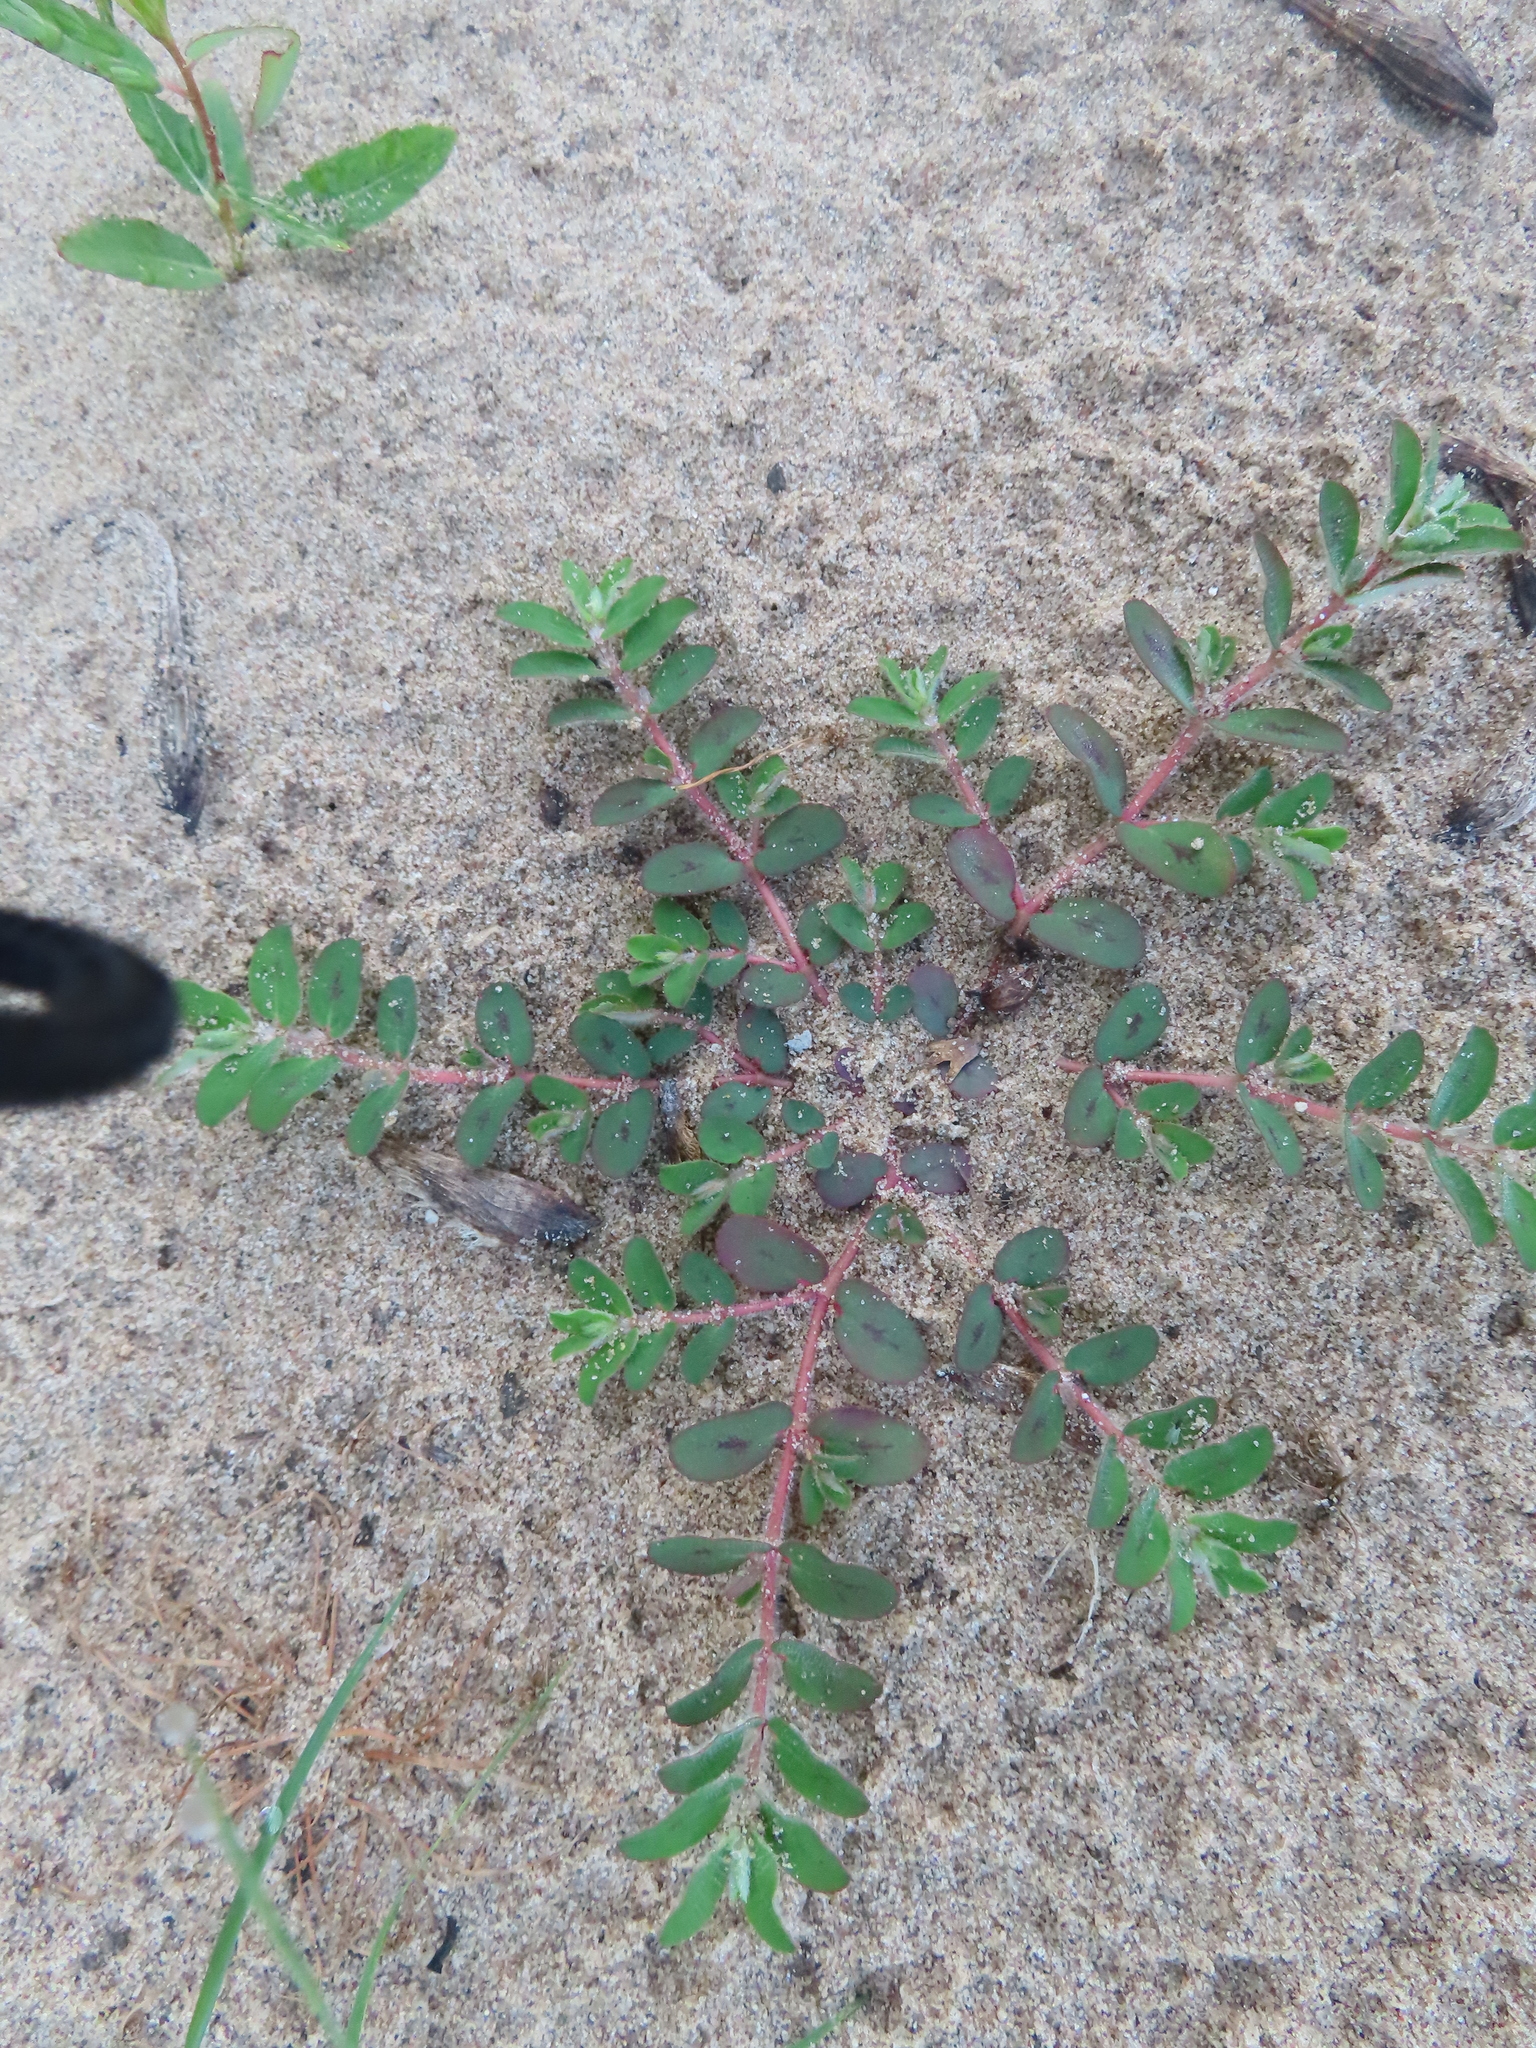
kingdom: Plantae
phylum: Tracheophyta
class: Magnoliopsida
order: Malpighiales
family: Euphorbiaceae
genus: Euphorbia
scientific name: Euphorbia maculata
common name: Spotted spurge
